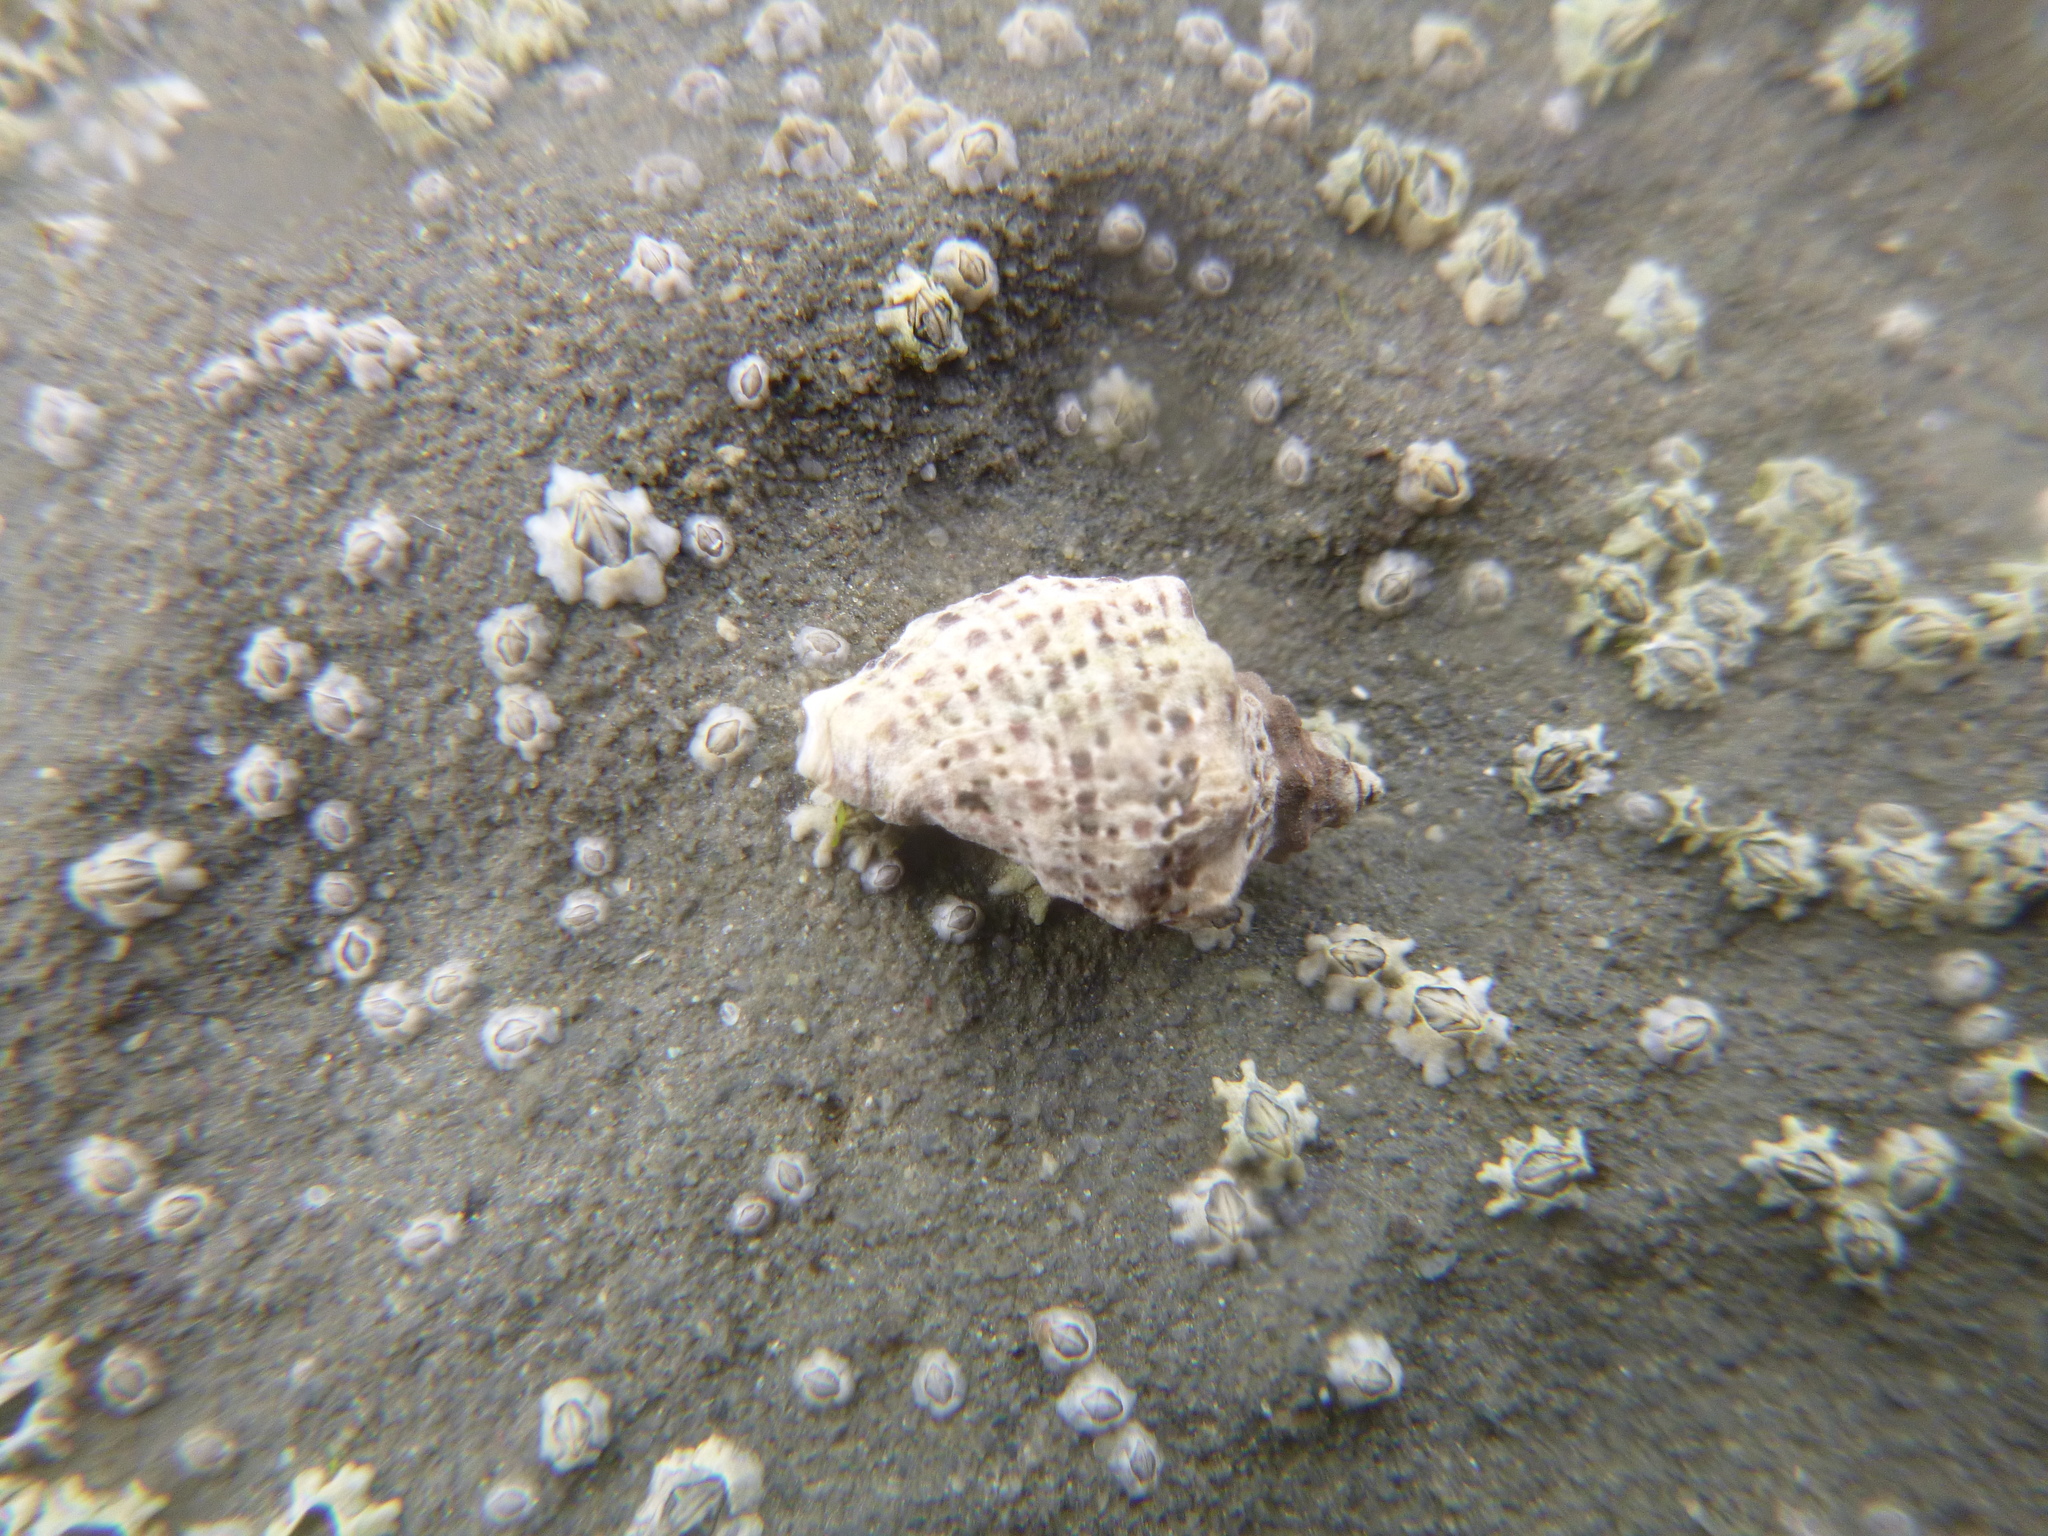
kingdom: Animalia
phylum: Mollusca
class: Gastropoda
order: Neogastropoda
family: Muricidae
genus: Haustrum
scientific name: Haustrum scobina
